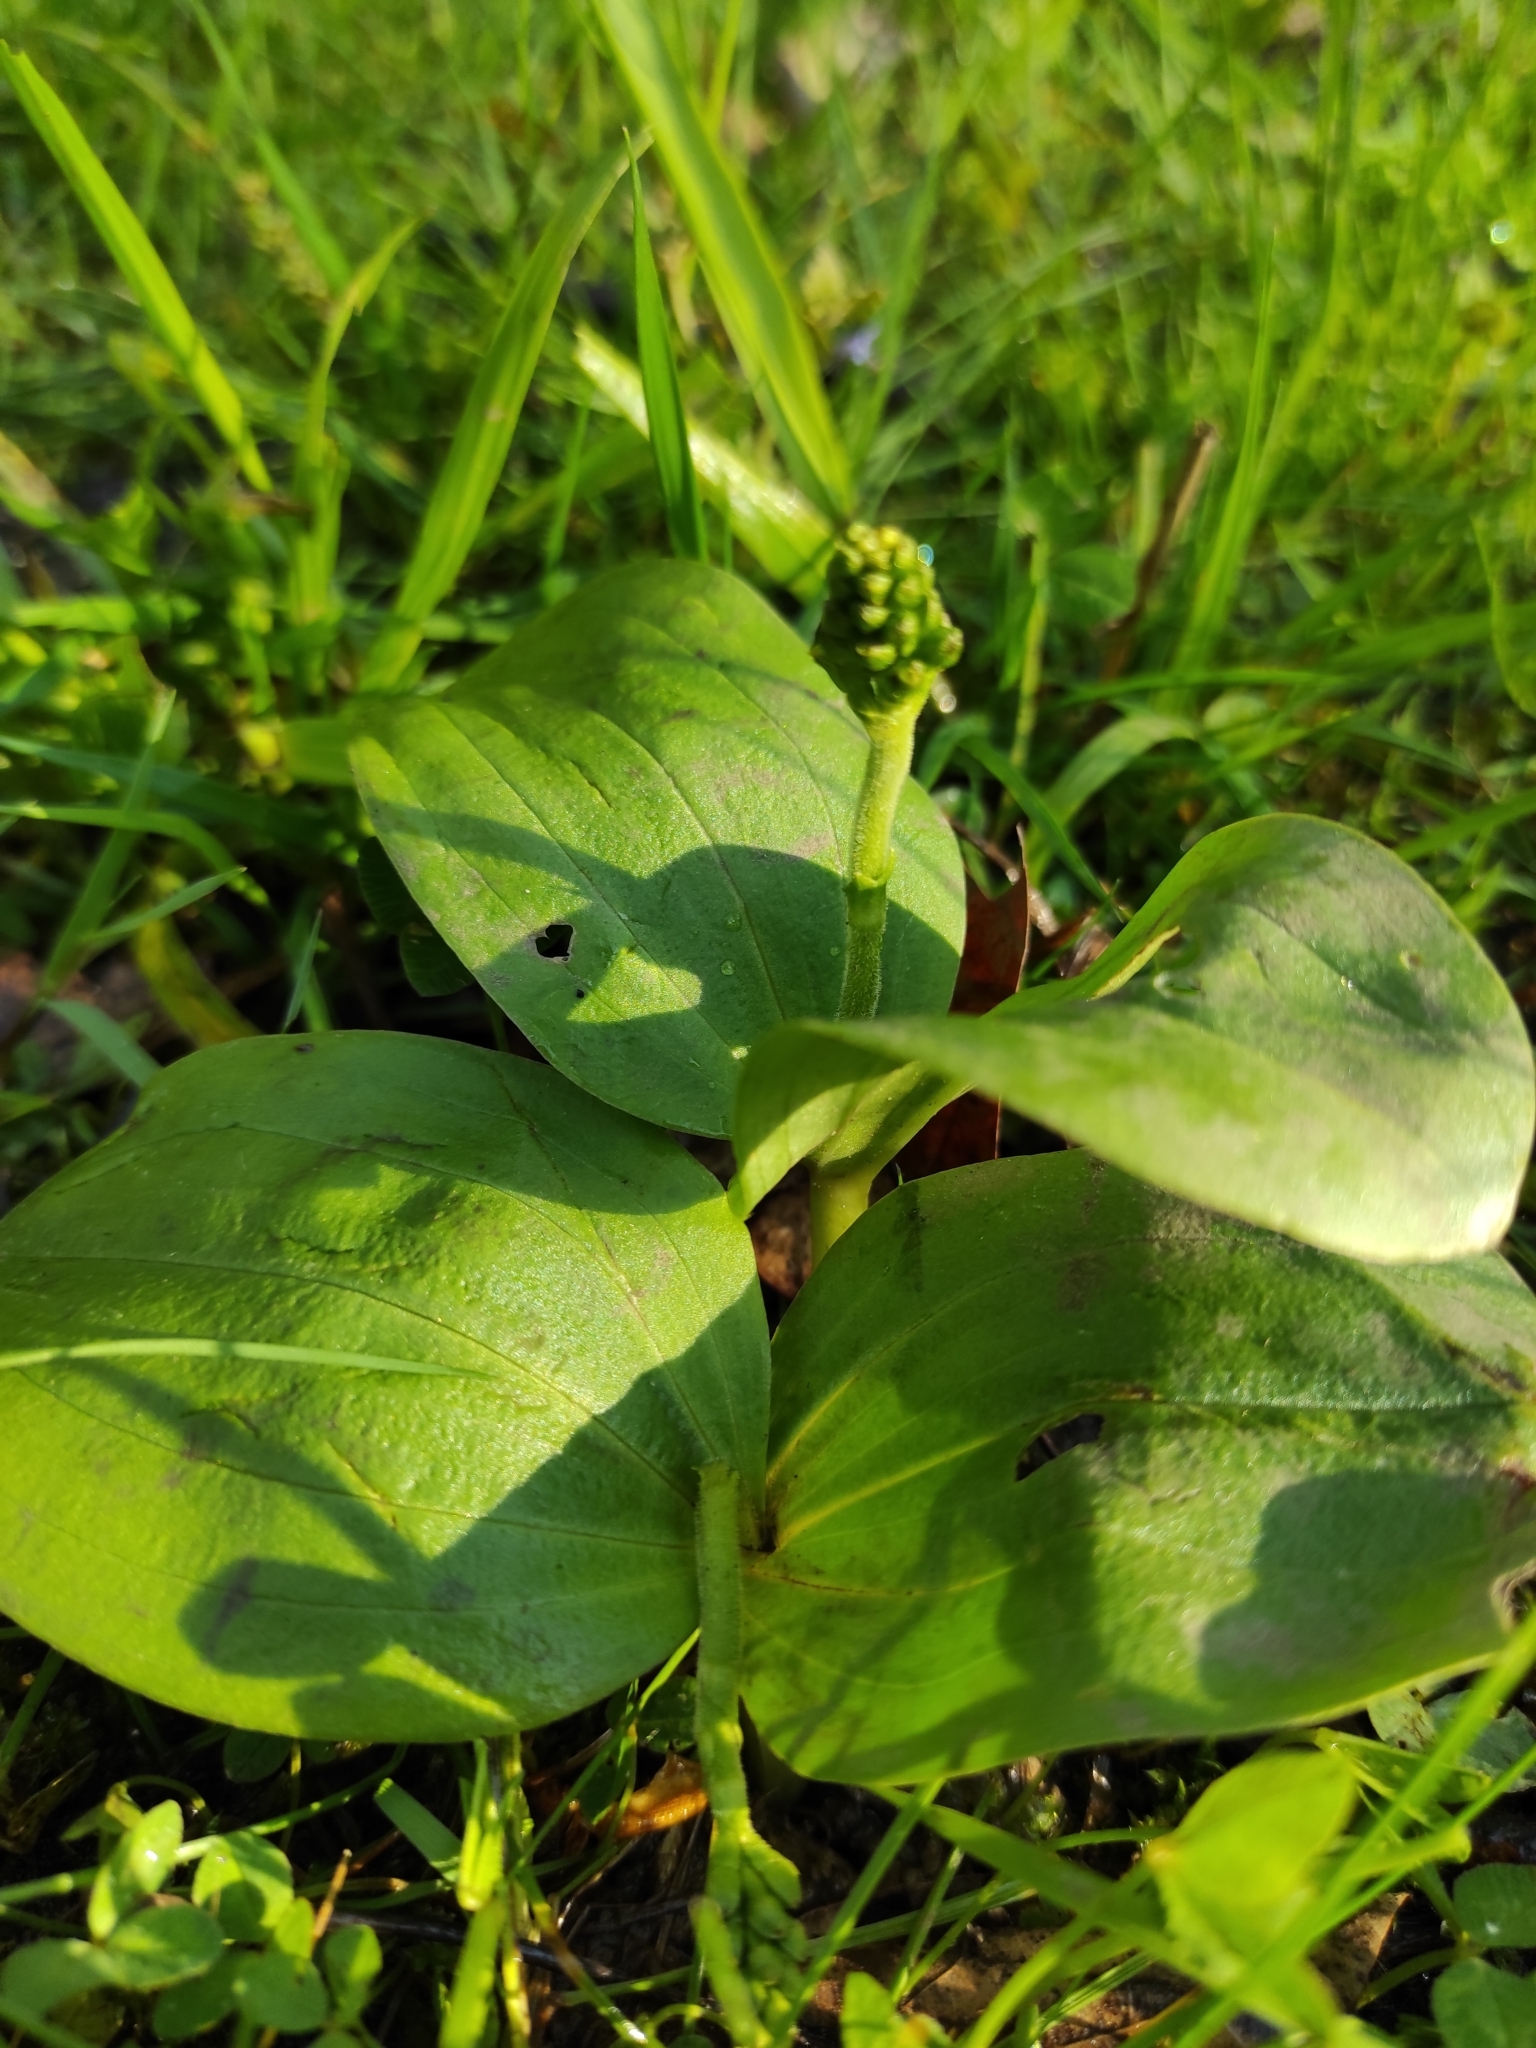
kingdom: Plantae
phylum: Tracheophyta
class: Liliopsida
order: Asparagales
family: Orchidaceae
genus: Neottia
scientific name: Neottia ovata
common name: Common twayblade
